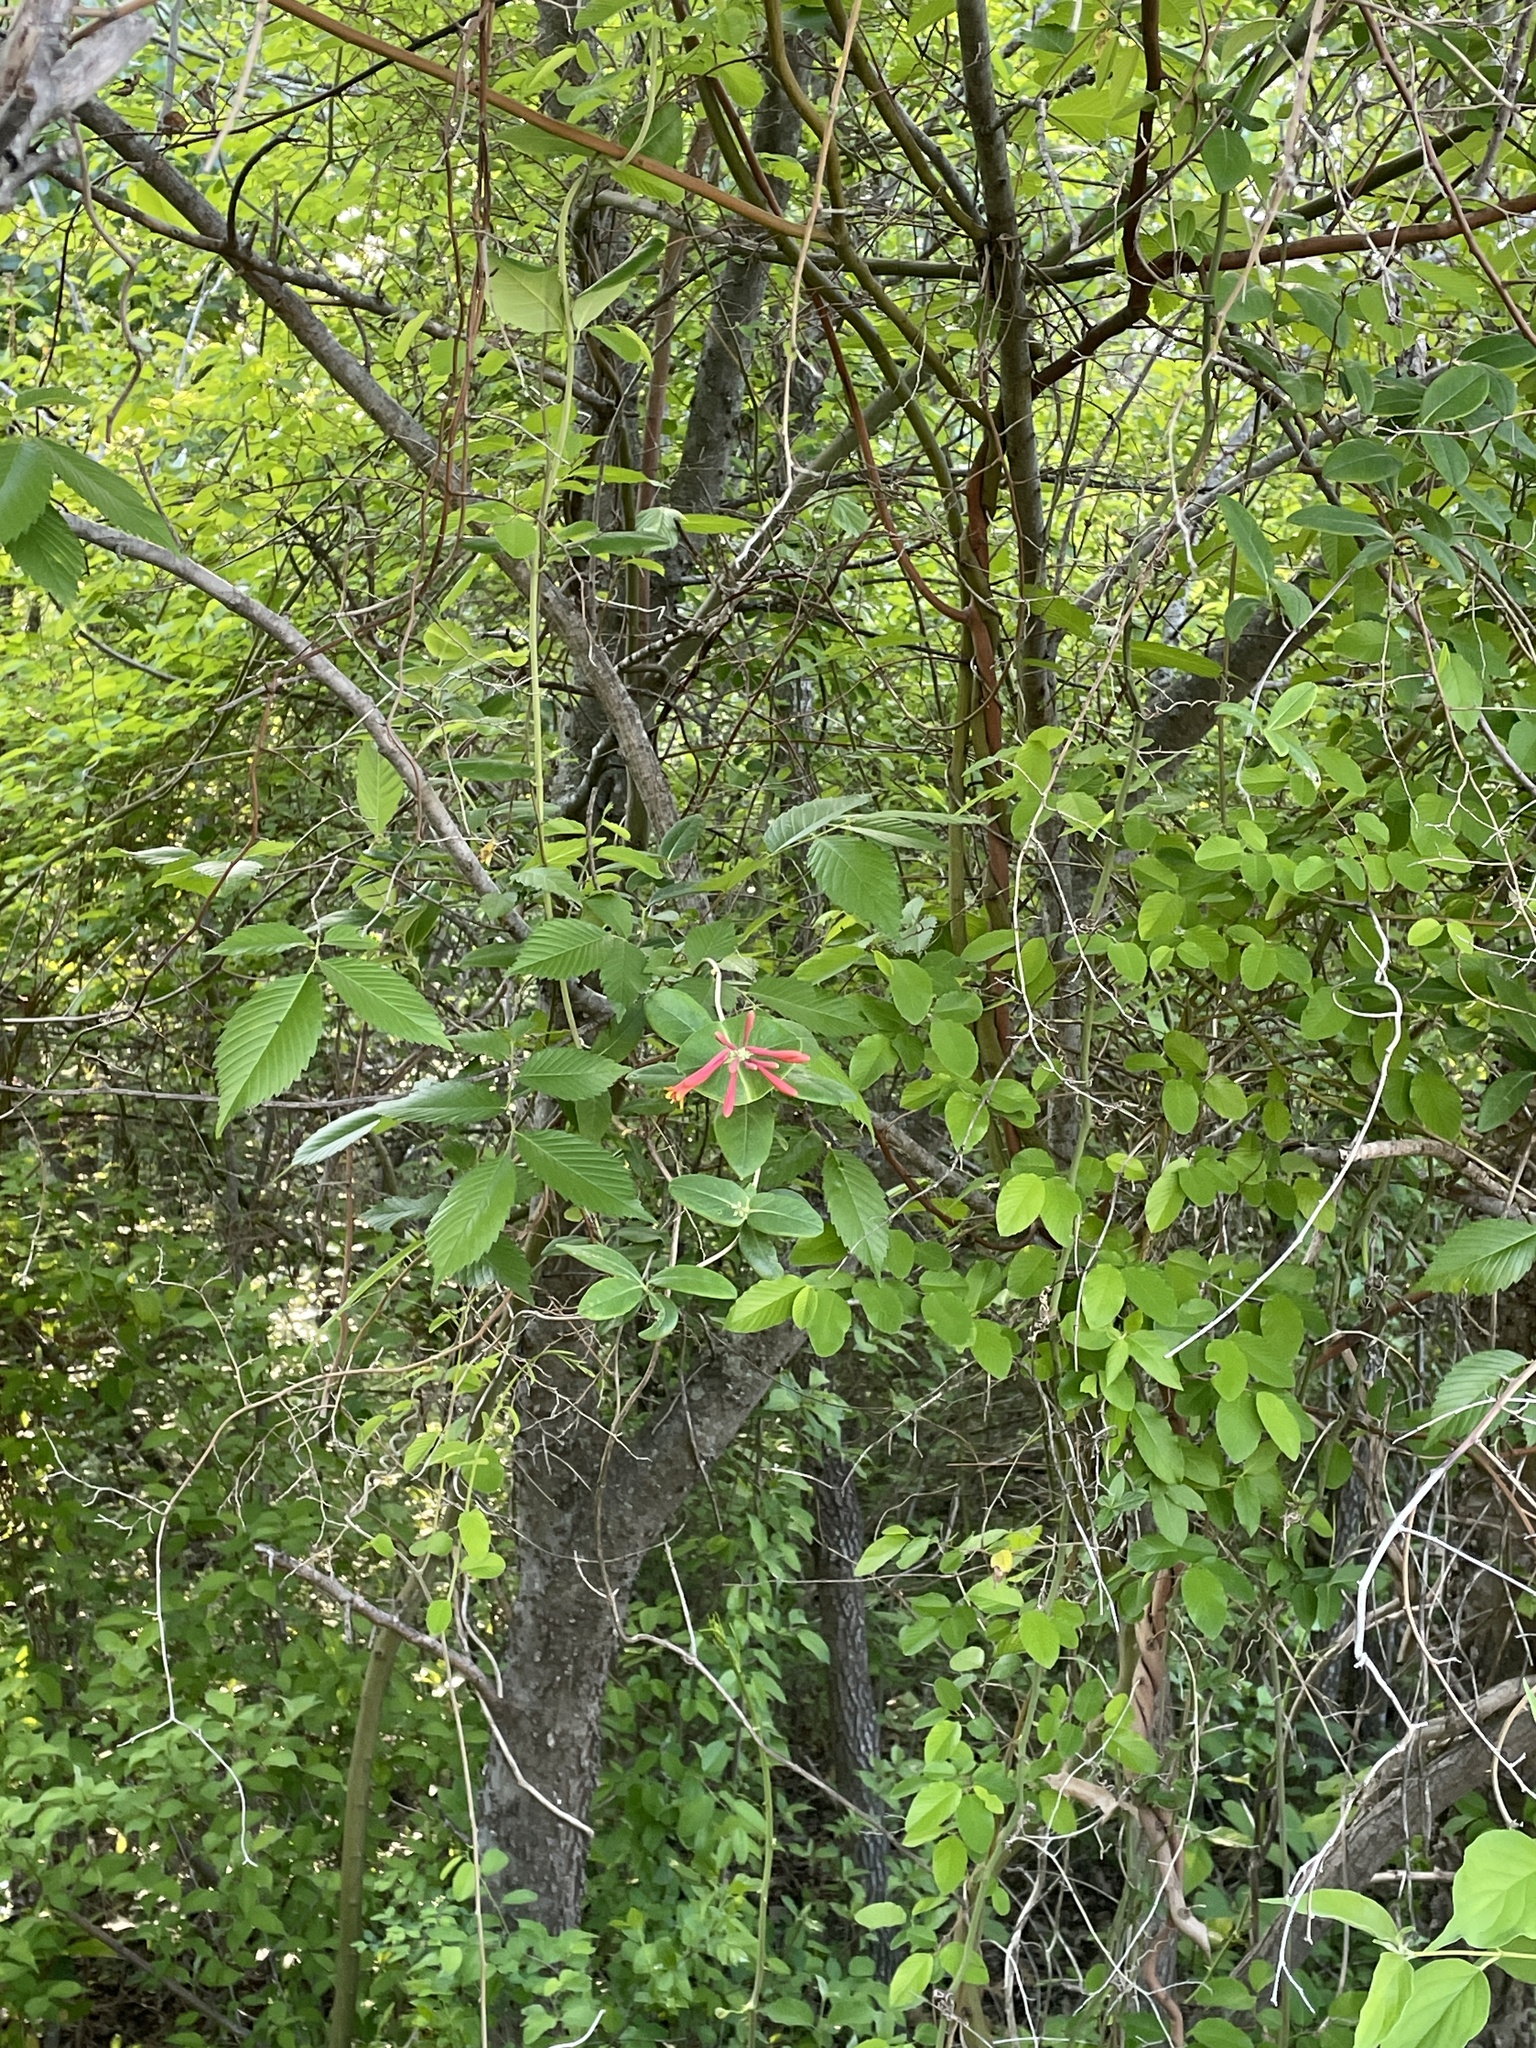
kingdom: Plantae
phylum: Tracheophyta
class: Magnoliopsida
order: Dipsacales
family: Caprifoliaceae
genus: Lonicera
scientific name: Lonicera sempervirens
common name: Coral honeysuckle
